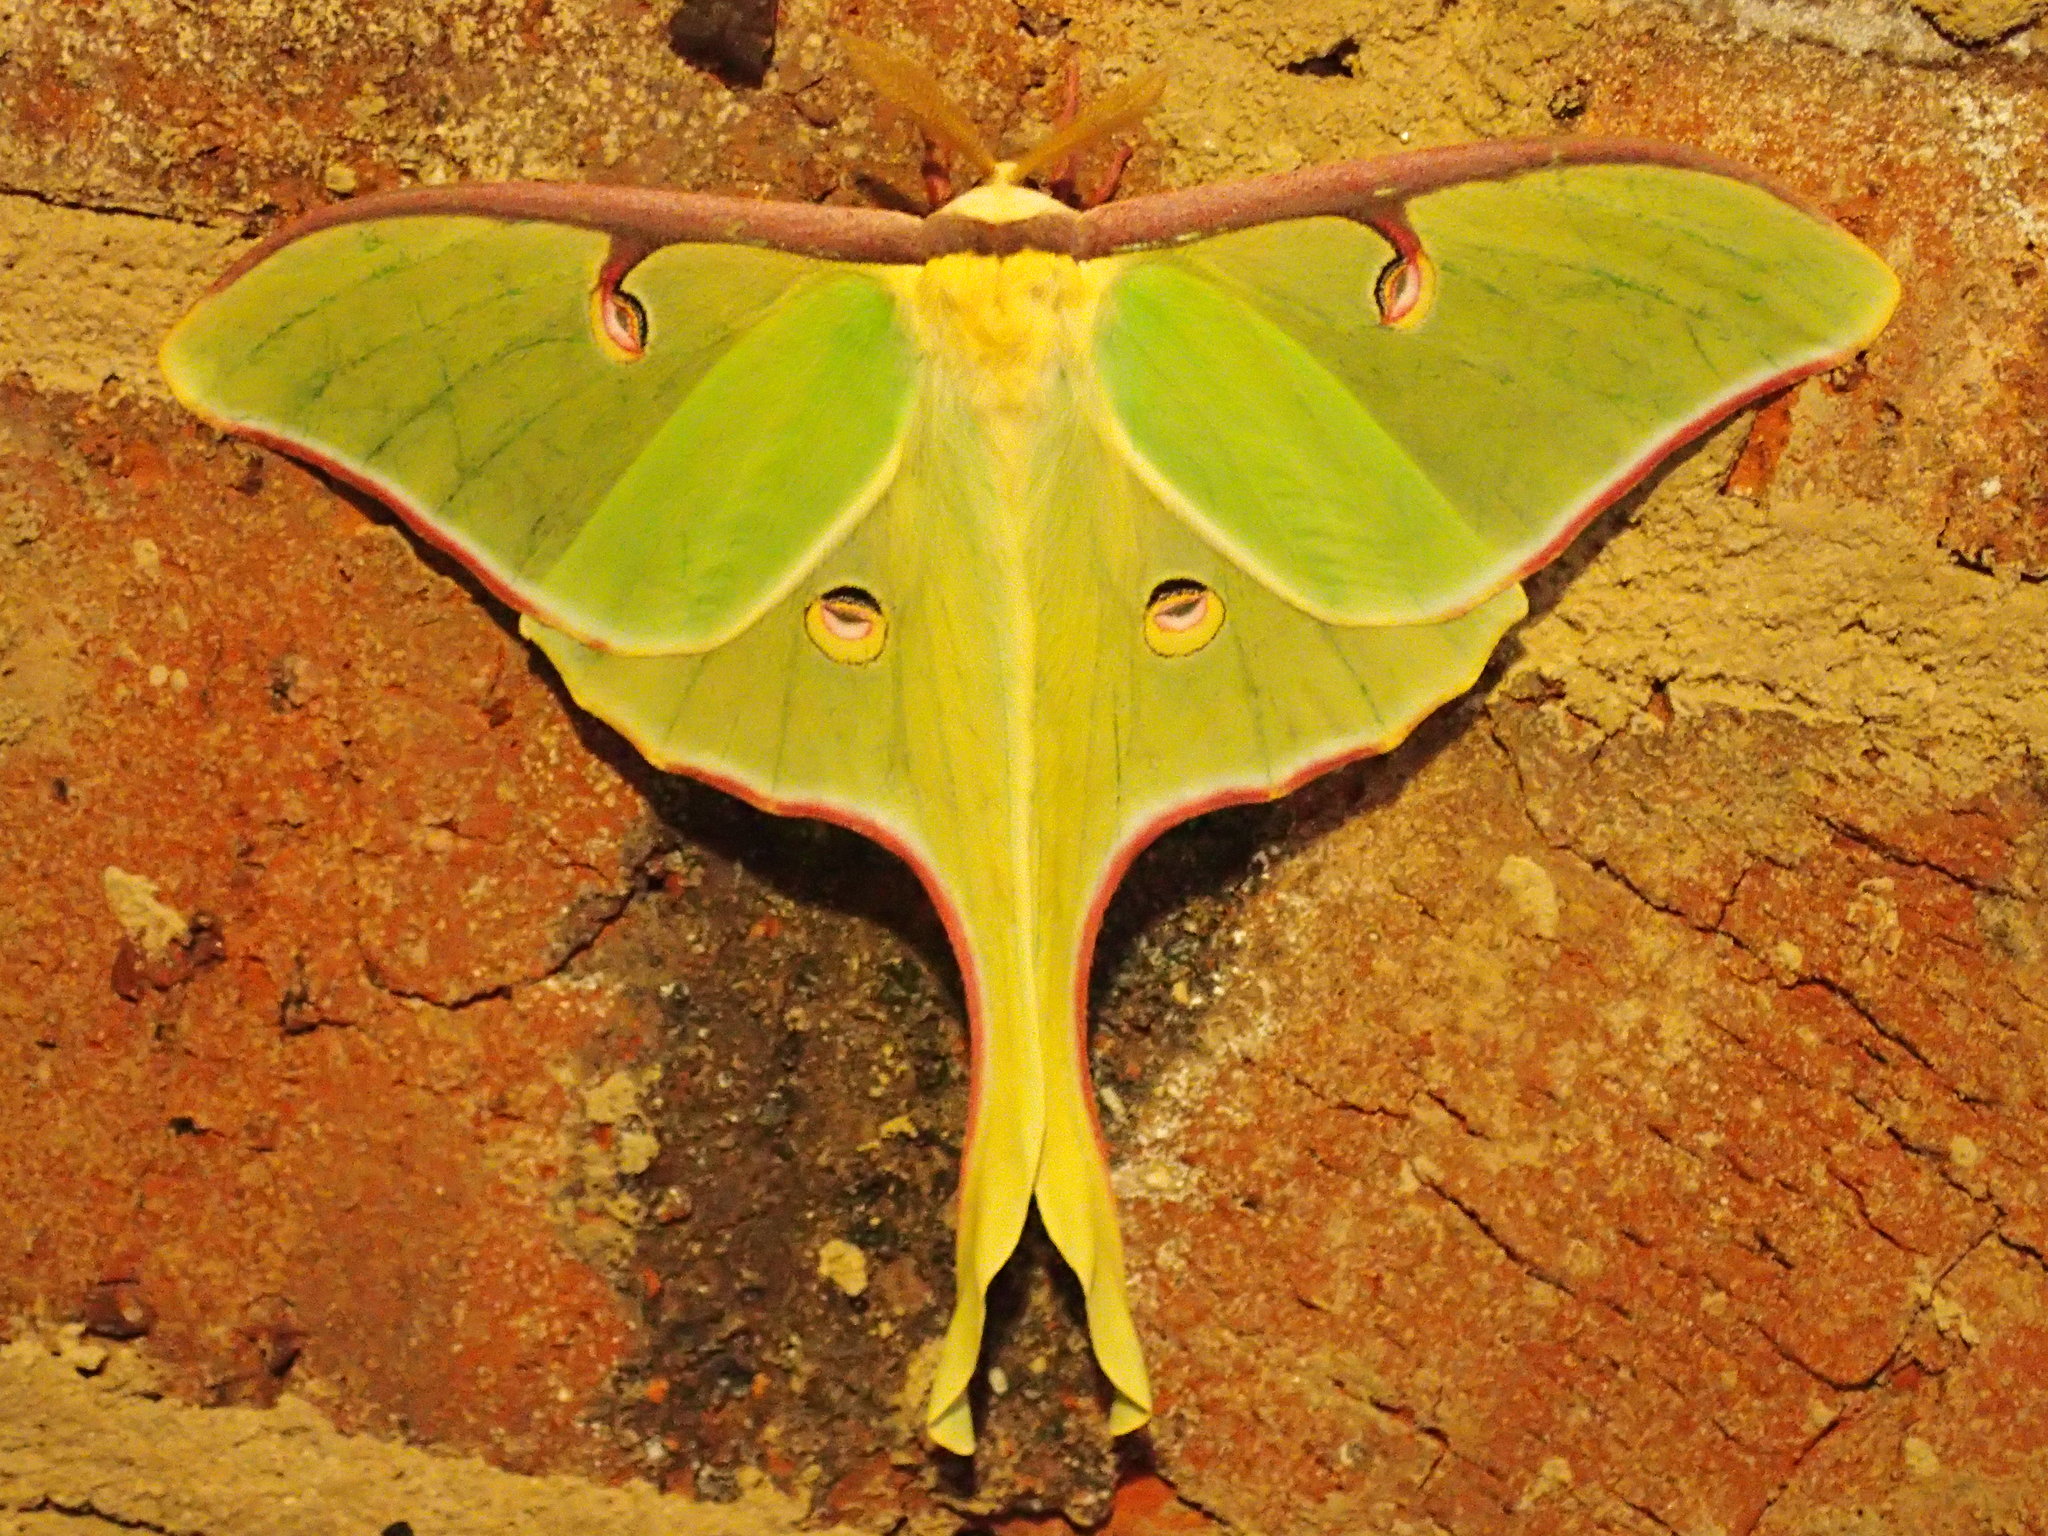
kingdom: Animalia
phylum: Arthropoda
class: Insecta
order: Lepidoptera
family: Saturniidae
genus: Actias
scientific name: Actias luna
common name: Luna moth
